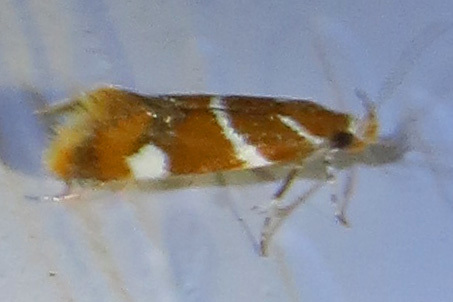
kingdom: Animalia
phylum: Arthropoda
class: Insecta
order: Lepidoptera
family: Oecophoridae
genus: Promalactis
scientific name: Promalactis suzukiella
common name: Moth
